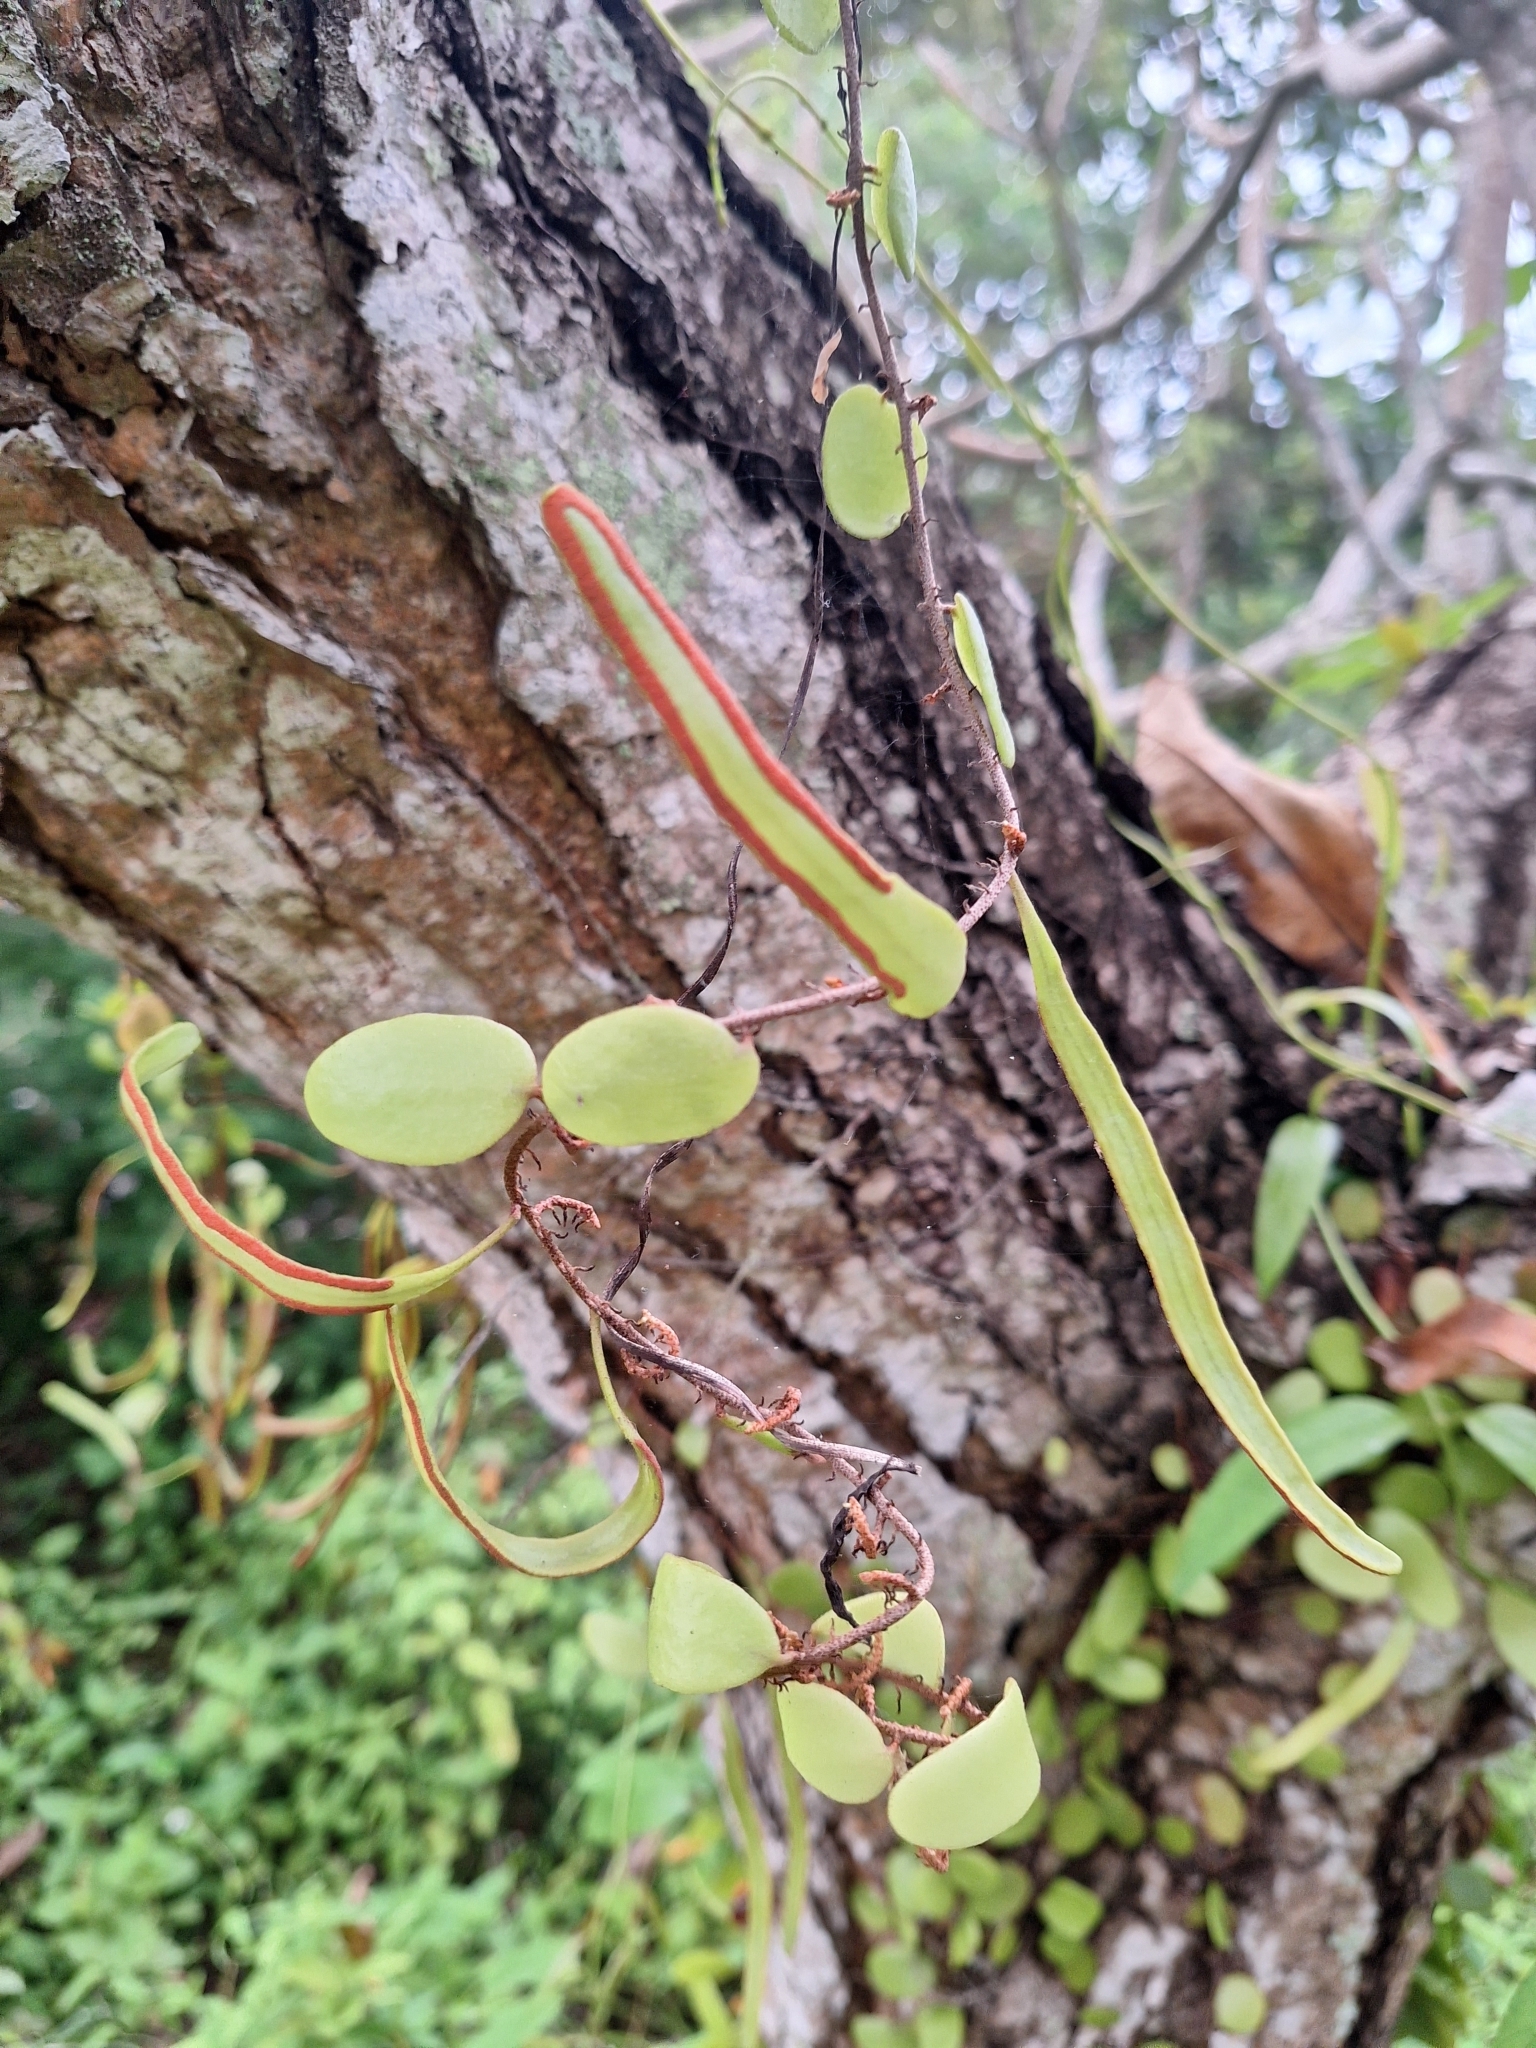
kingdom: Plantae
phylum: Tracheophyta
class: Polypodiopsida
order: Polypodiales
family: Polypodiaceae
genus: Pyrrosia
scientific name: Pyrrosia piloselloides
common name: Epiphytic creeping fern
